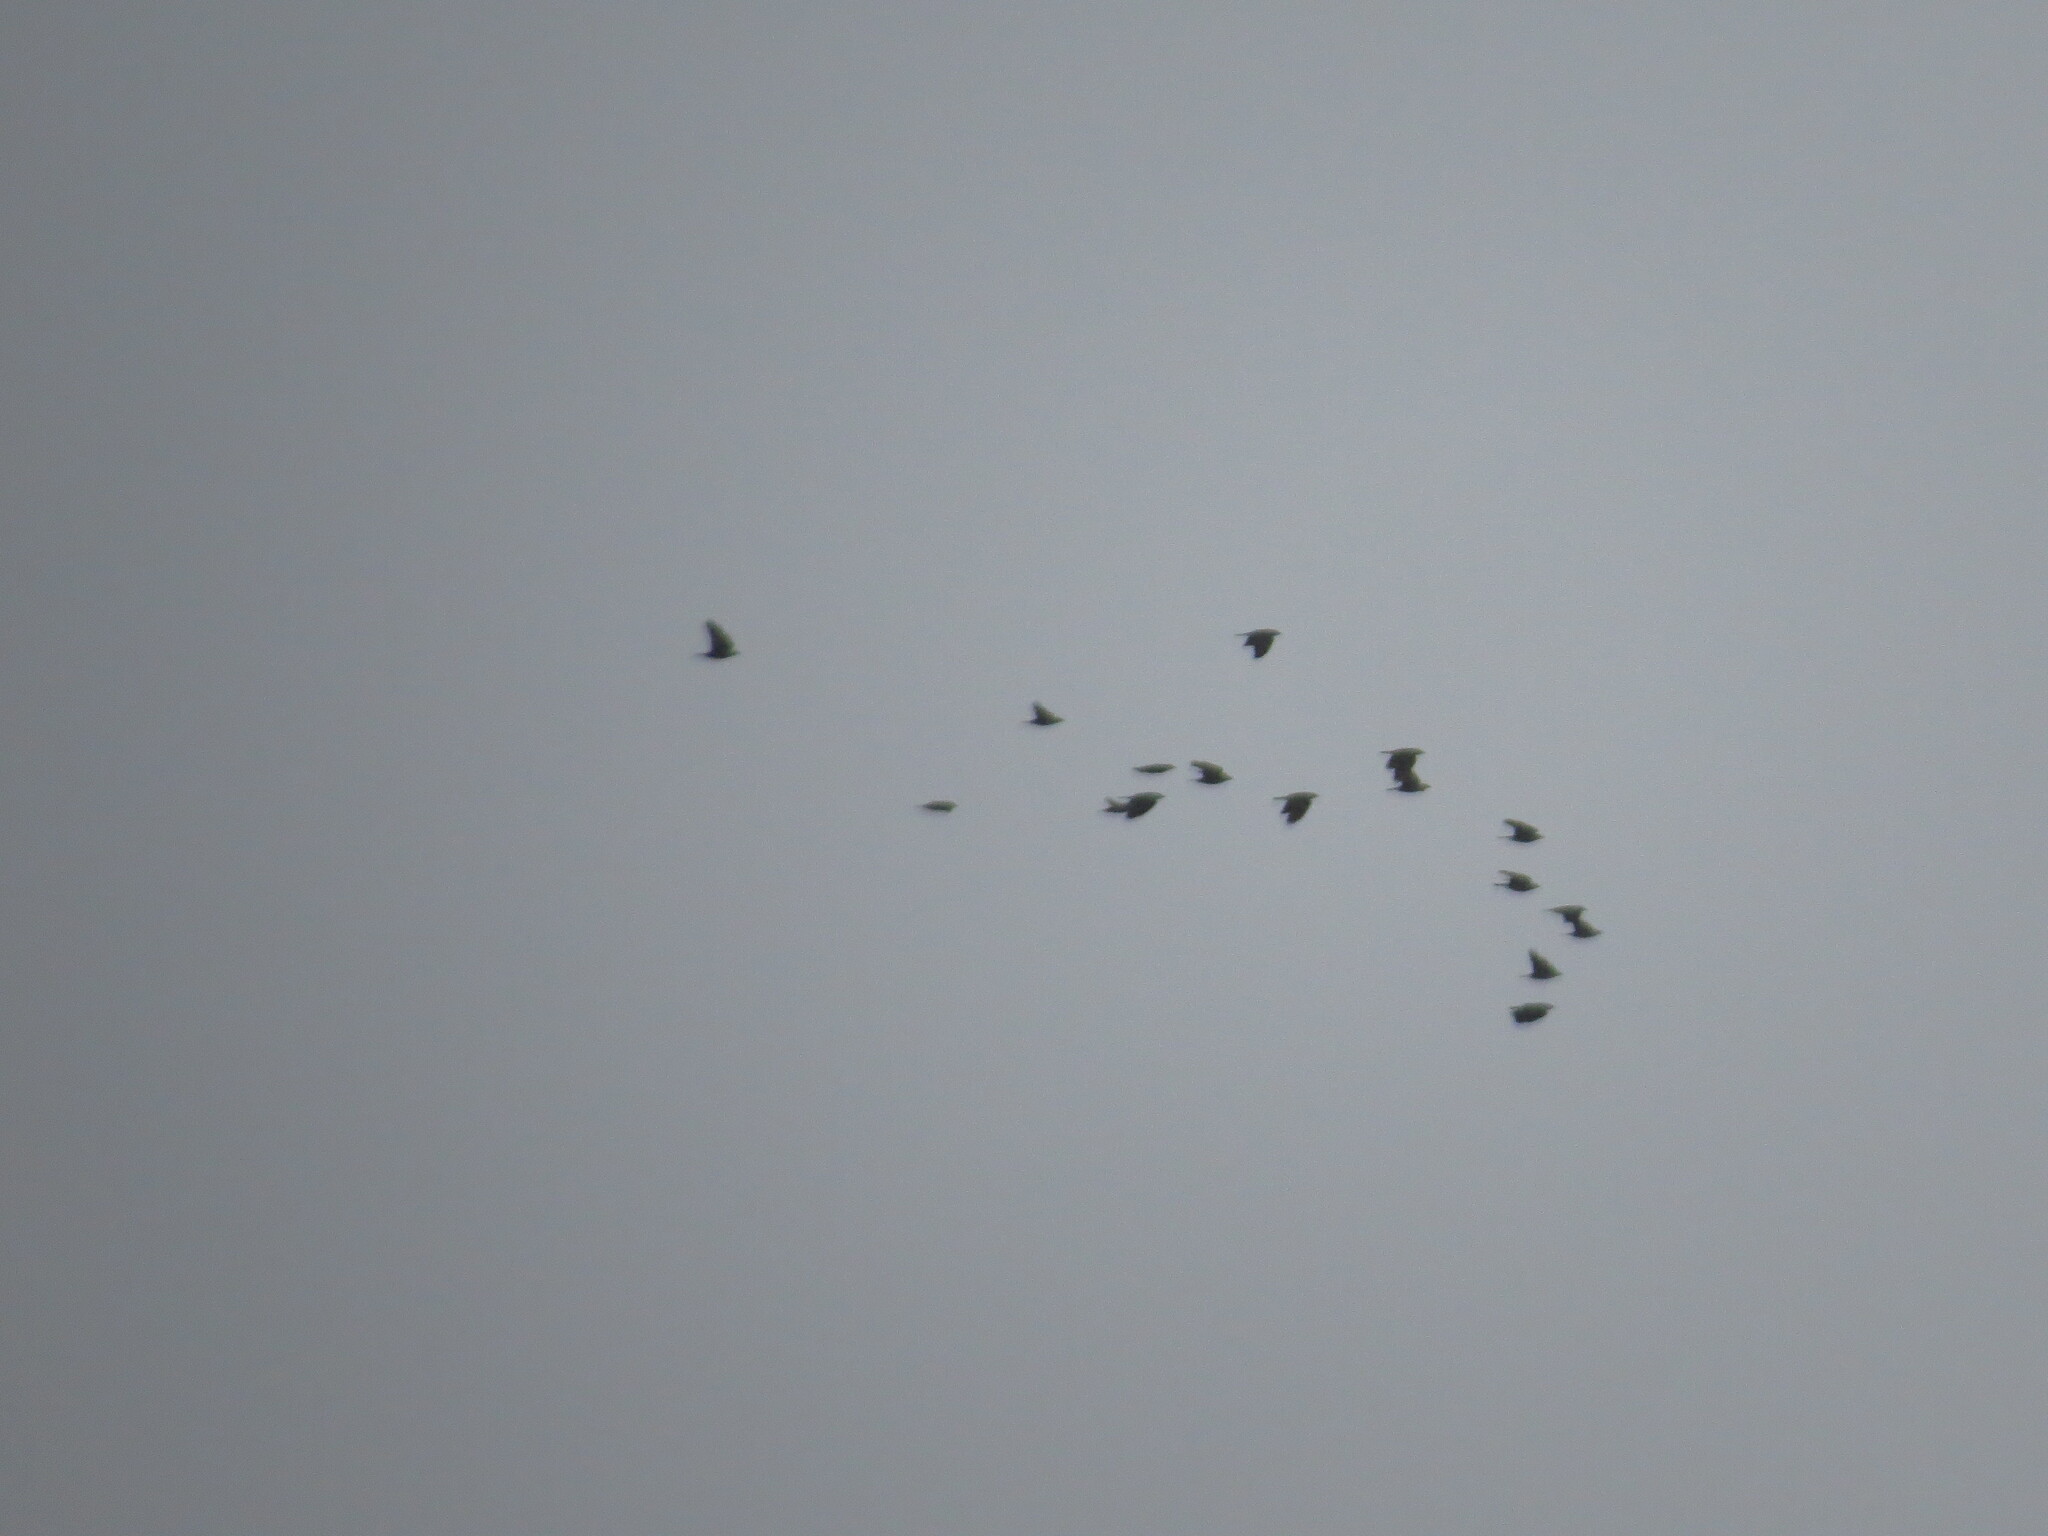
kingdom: Animalia
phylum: Chordata
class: Aves
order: Passeriformes
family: Corvidae
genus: Coloeus
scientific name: Coloeus monedula
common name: Western jackdaw
